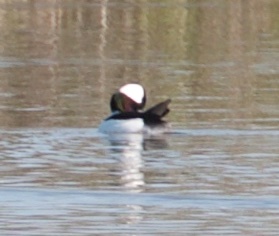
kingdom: Animalia
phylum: Chordata
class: Aves
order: Anseriformes
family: Anatidae
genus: Bucephala
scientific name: Bucephala albeola
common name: Bufflehead
